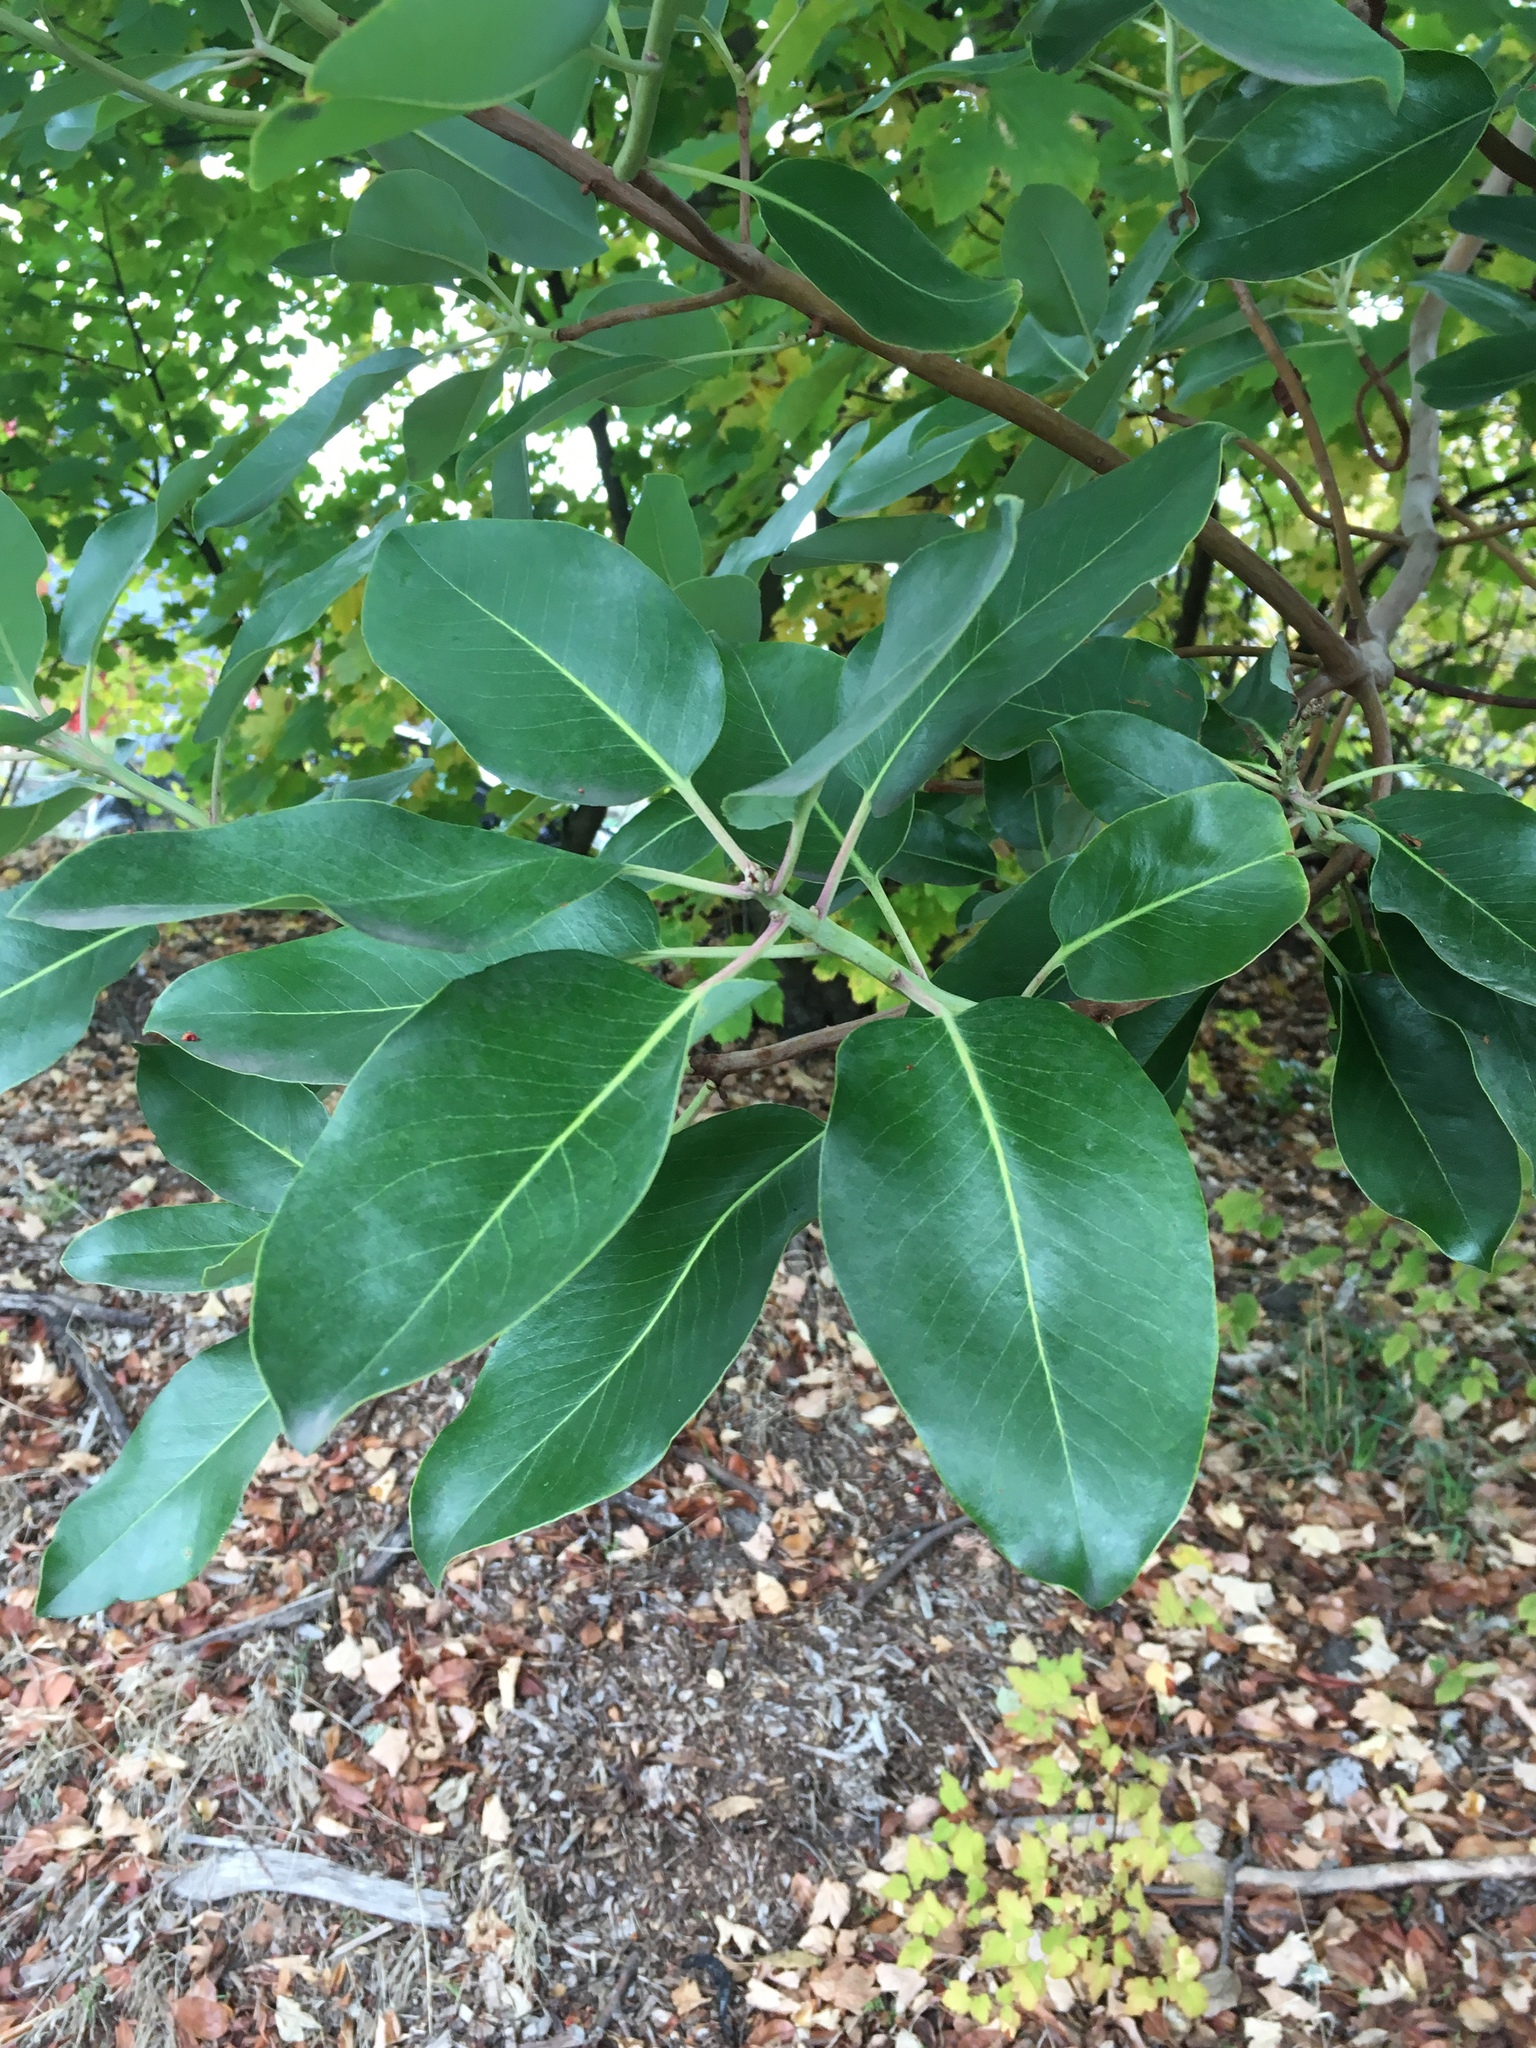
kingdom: Plantae
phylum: Tracheophyta
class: Magnoliopsida
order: Ericales
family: Ericaceae
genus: Arbutus
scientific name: Arbutus menziesii
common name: Pacific madrone
